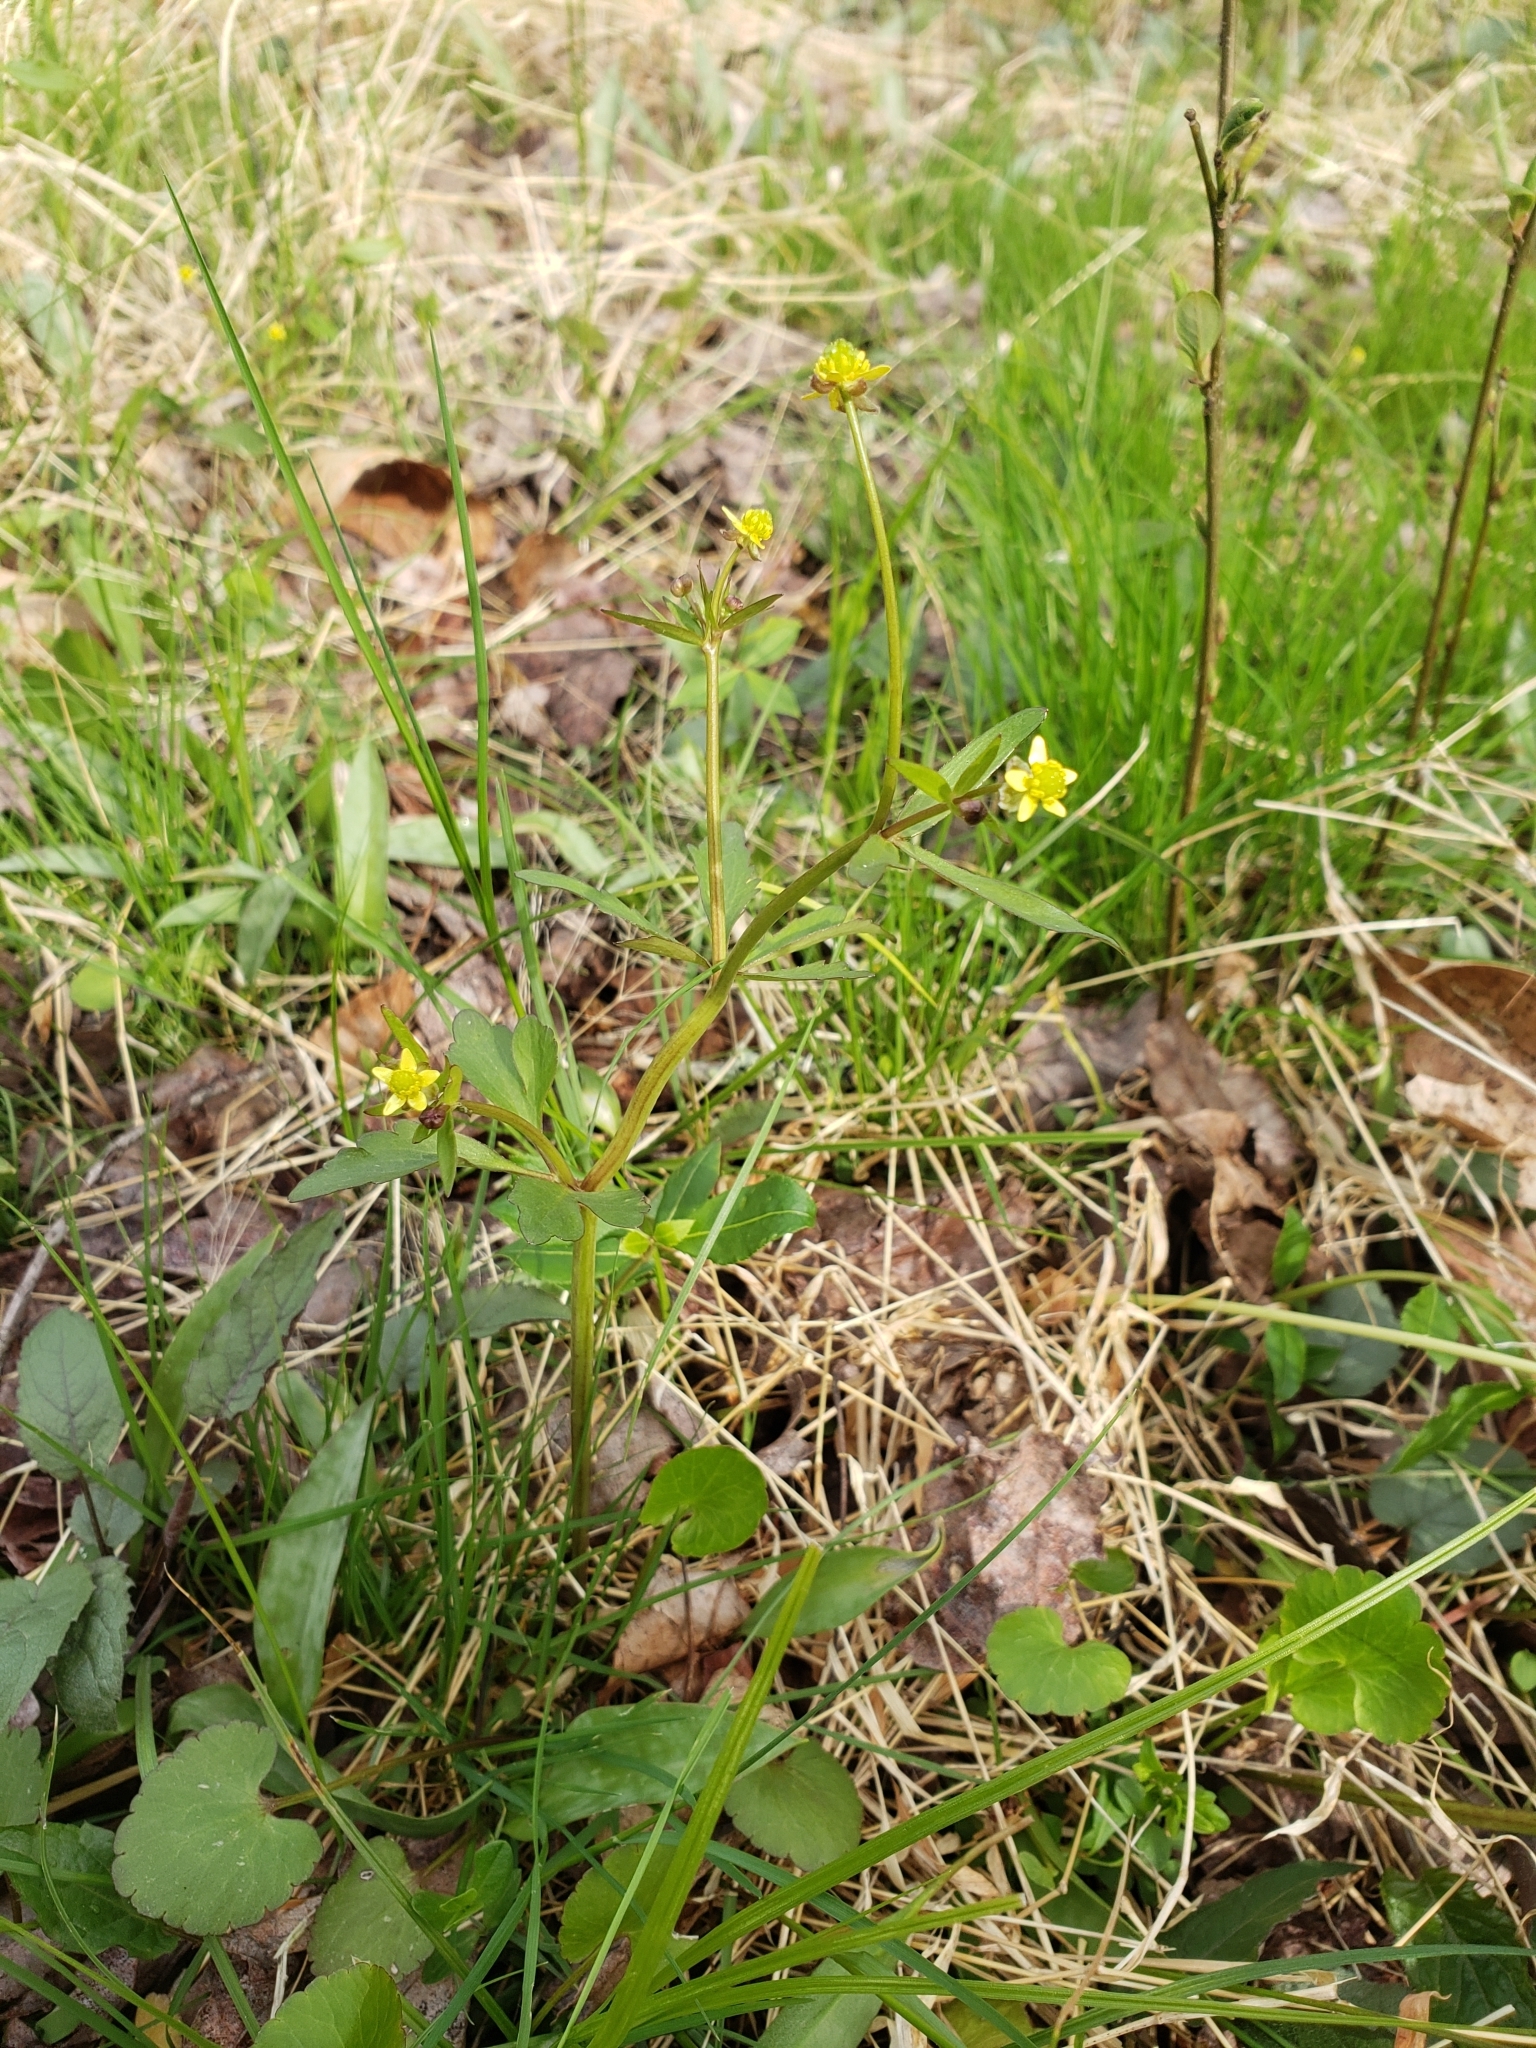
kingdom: Plantae
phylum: Tracheophyta
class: Magnoliopsida
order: Ranunculales
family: Ranunculaceae
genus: Ranunculus
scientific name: Ranunculus abortivus
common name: Early wood buttercup
